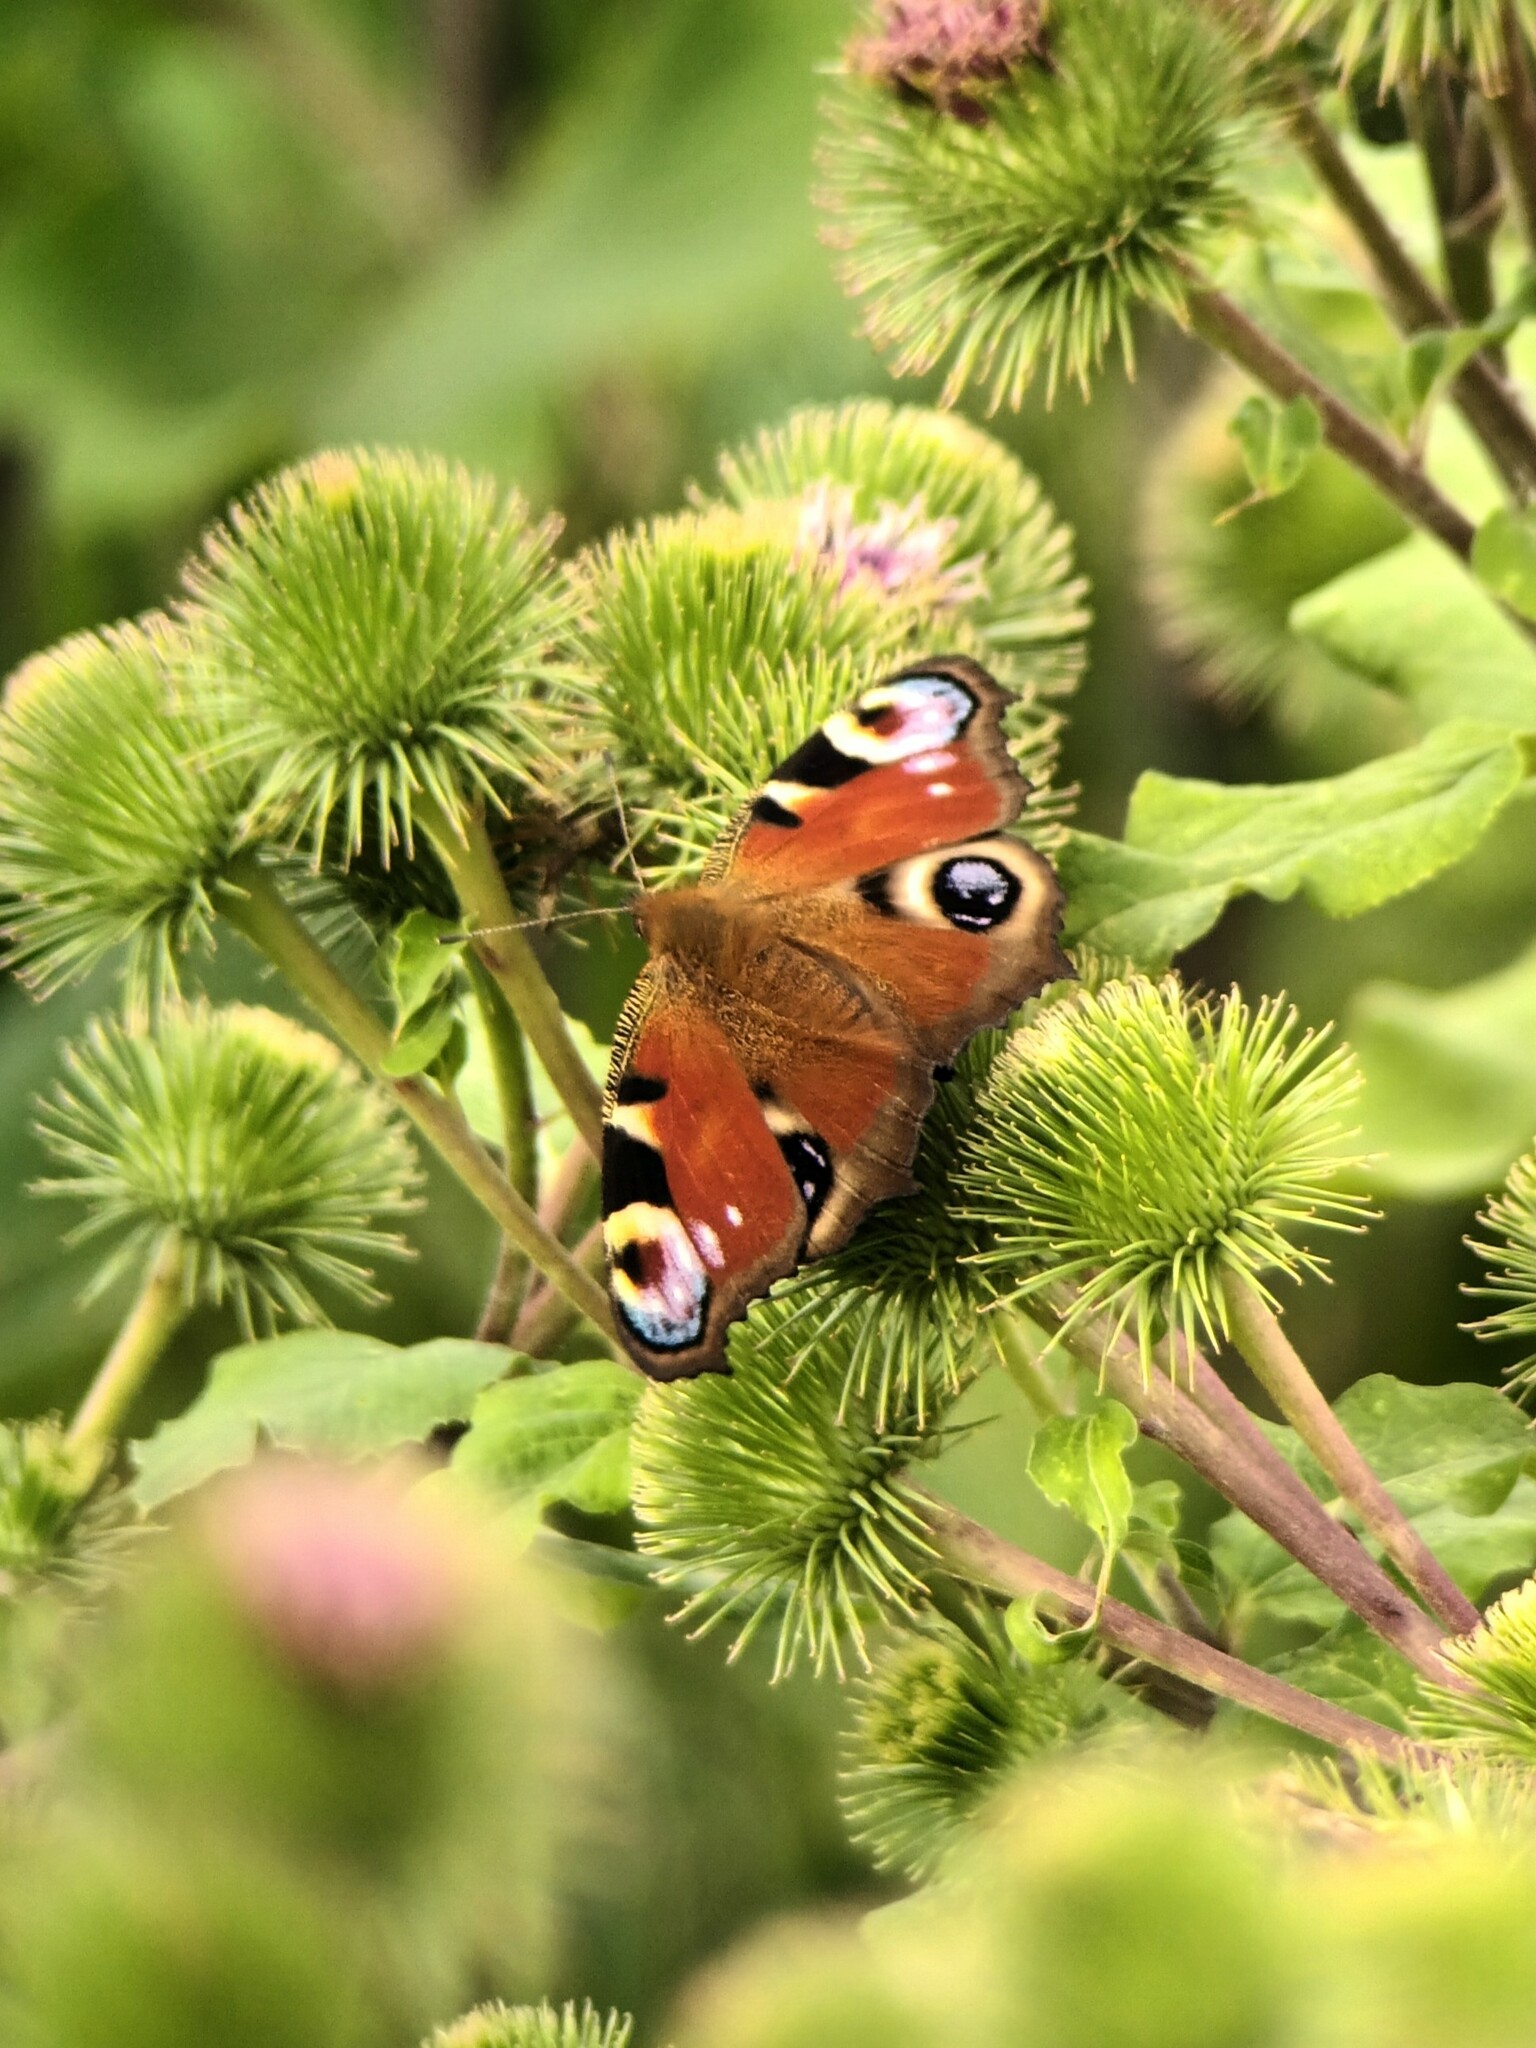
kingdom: Animalia
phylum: Arthropoda
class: Insecta
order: Lepidoptera
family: Nymphalidae
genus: Aglais
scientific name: Aglais io
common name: Peacock
